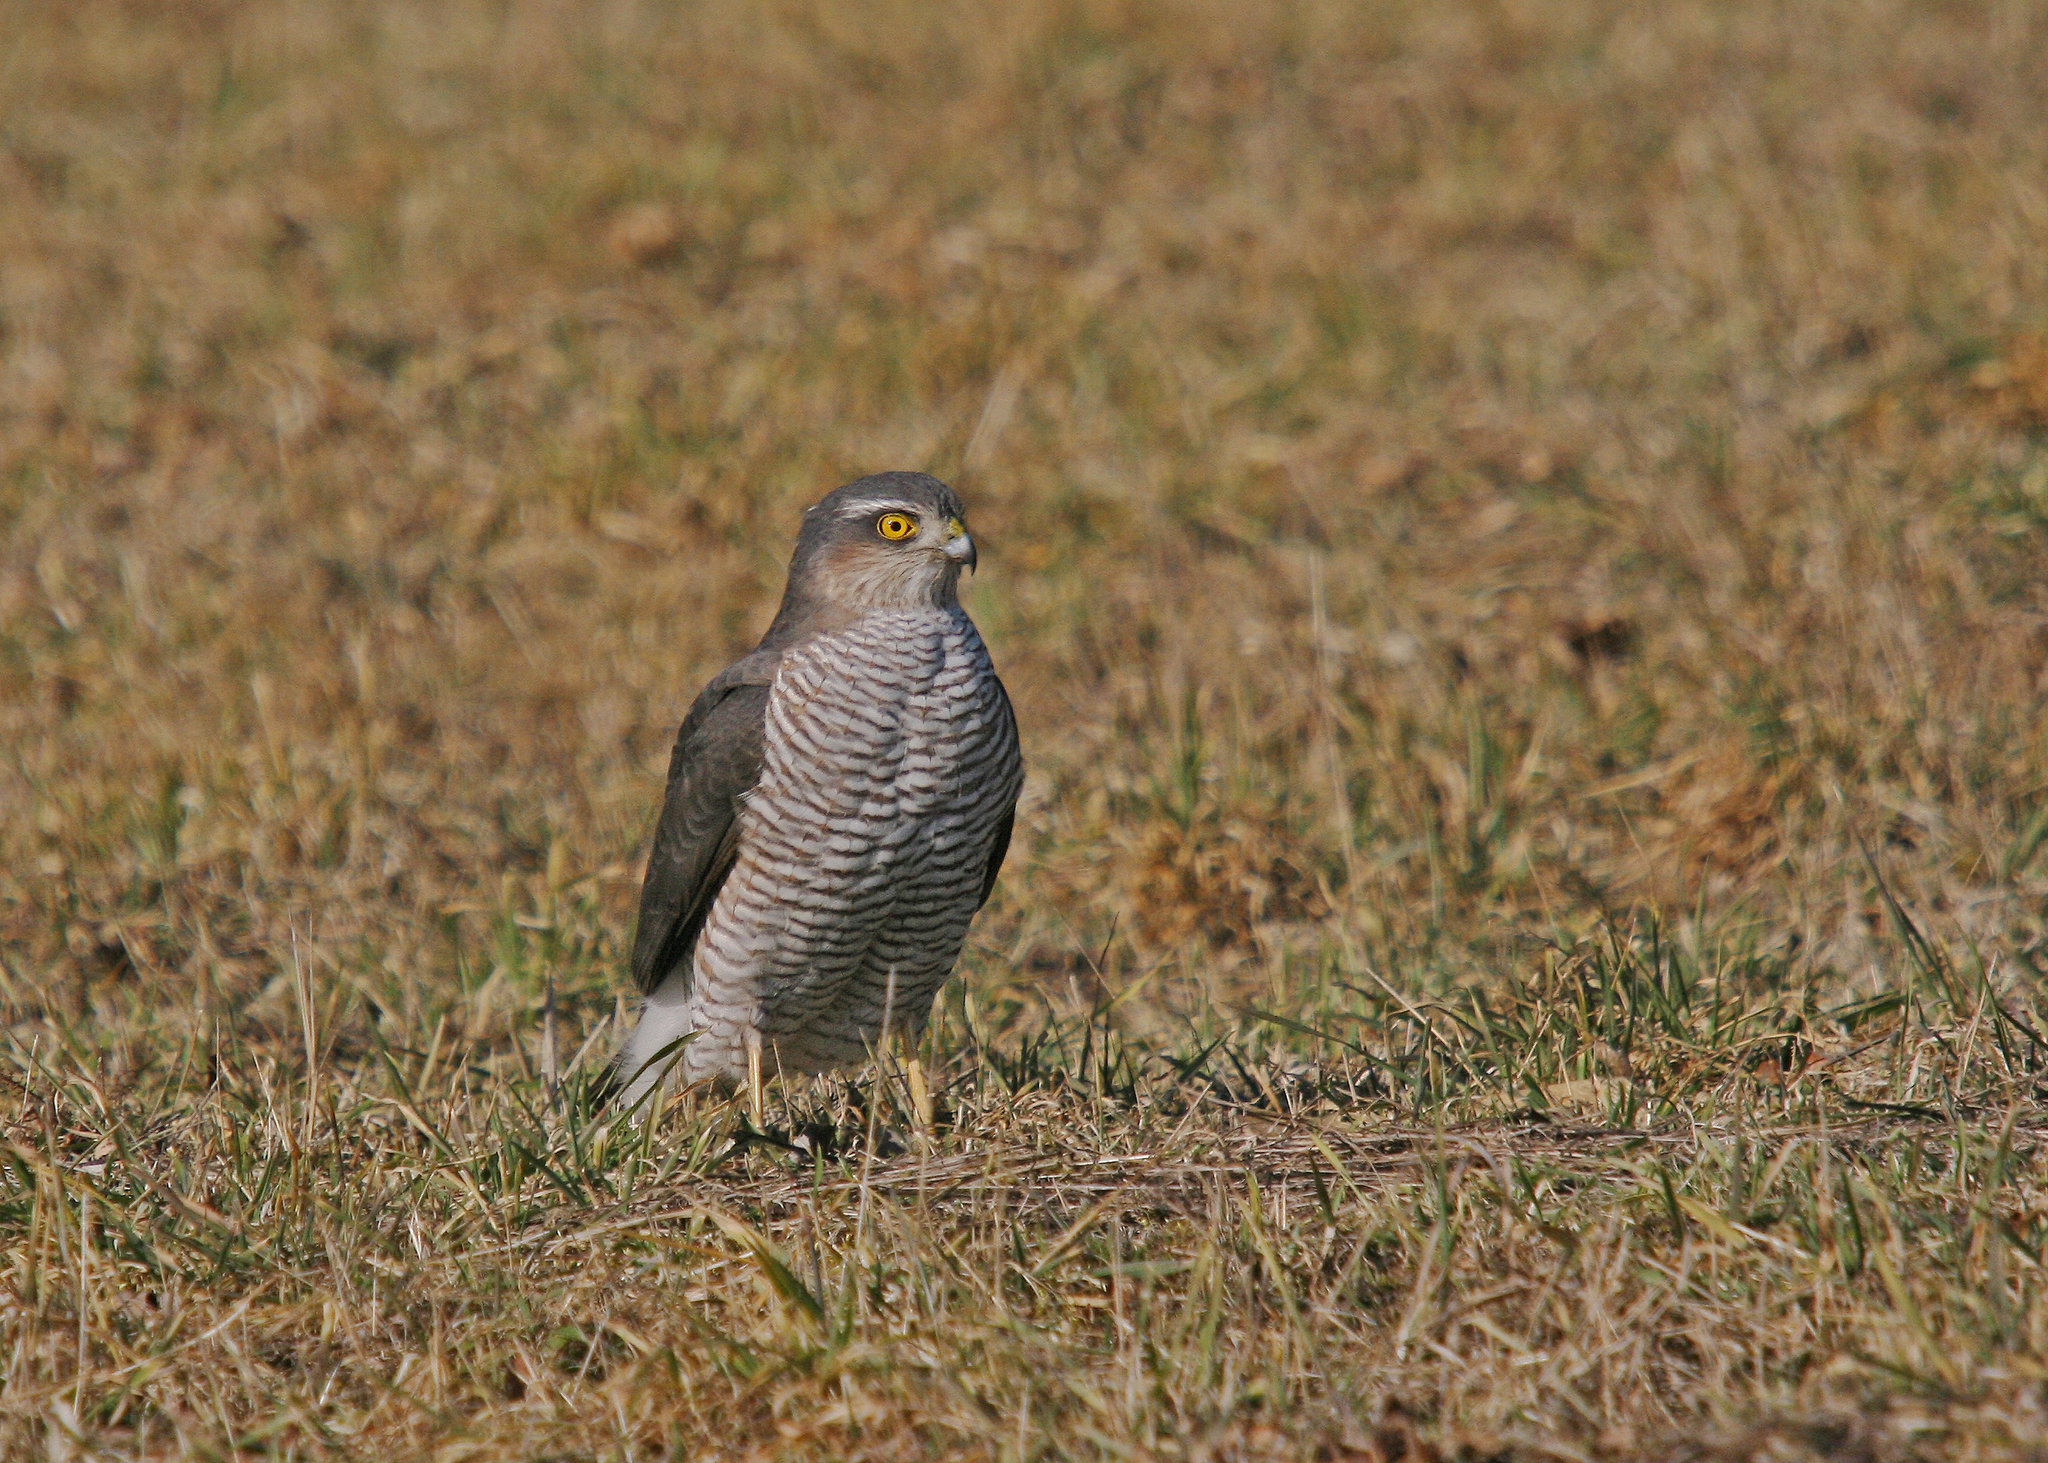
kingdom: Animalia
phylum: Chordata
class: Aves
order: Accipitriformes
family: Accipitridae
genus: Accipiter
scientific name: Accipiter nisus
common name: Eurasian sparrowhawk
